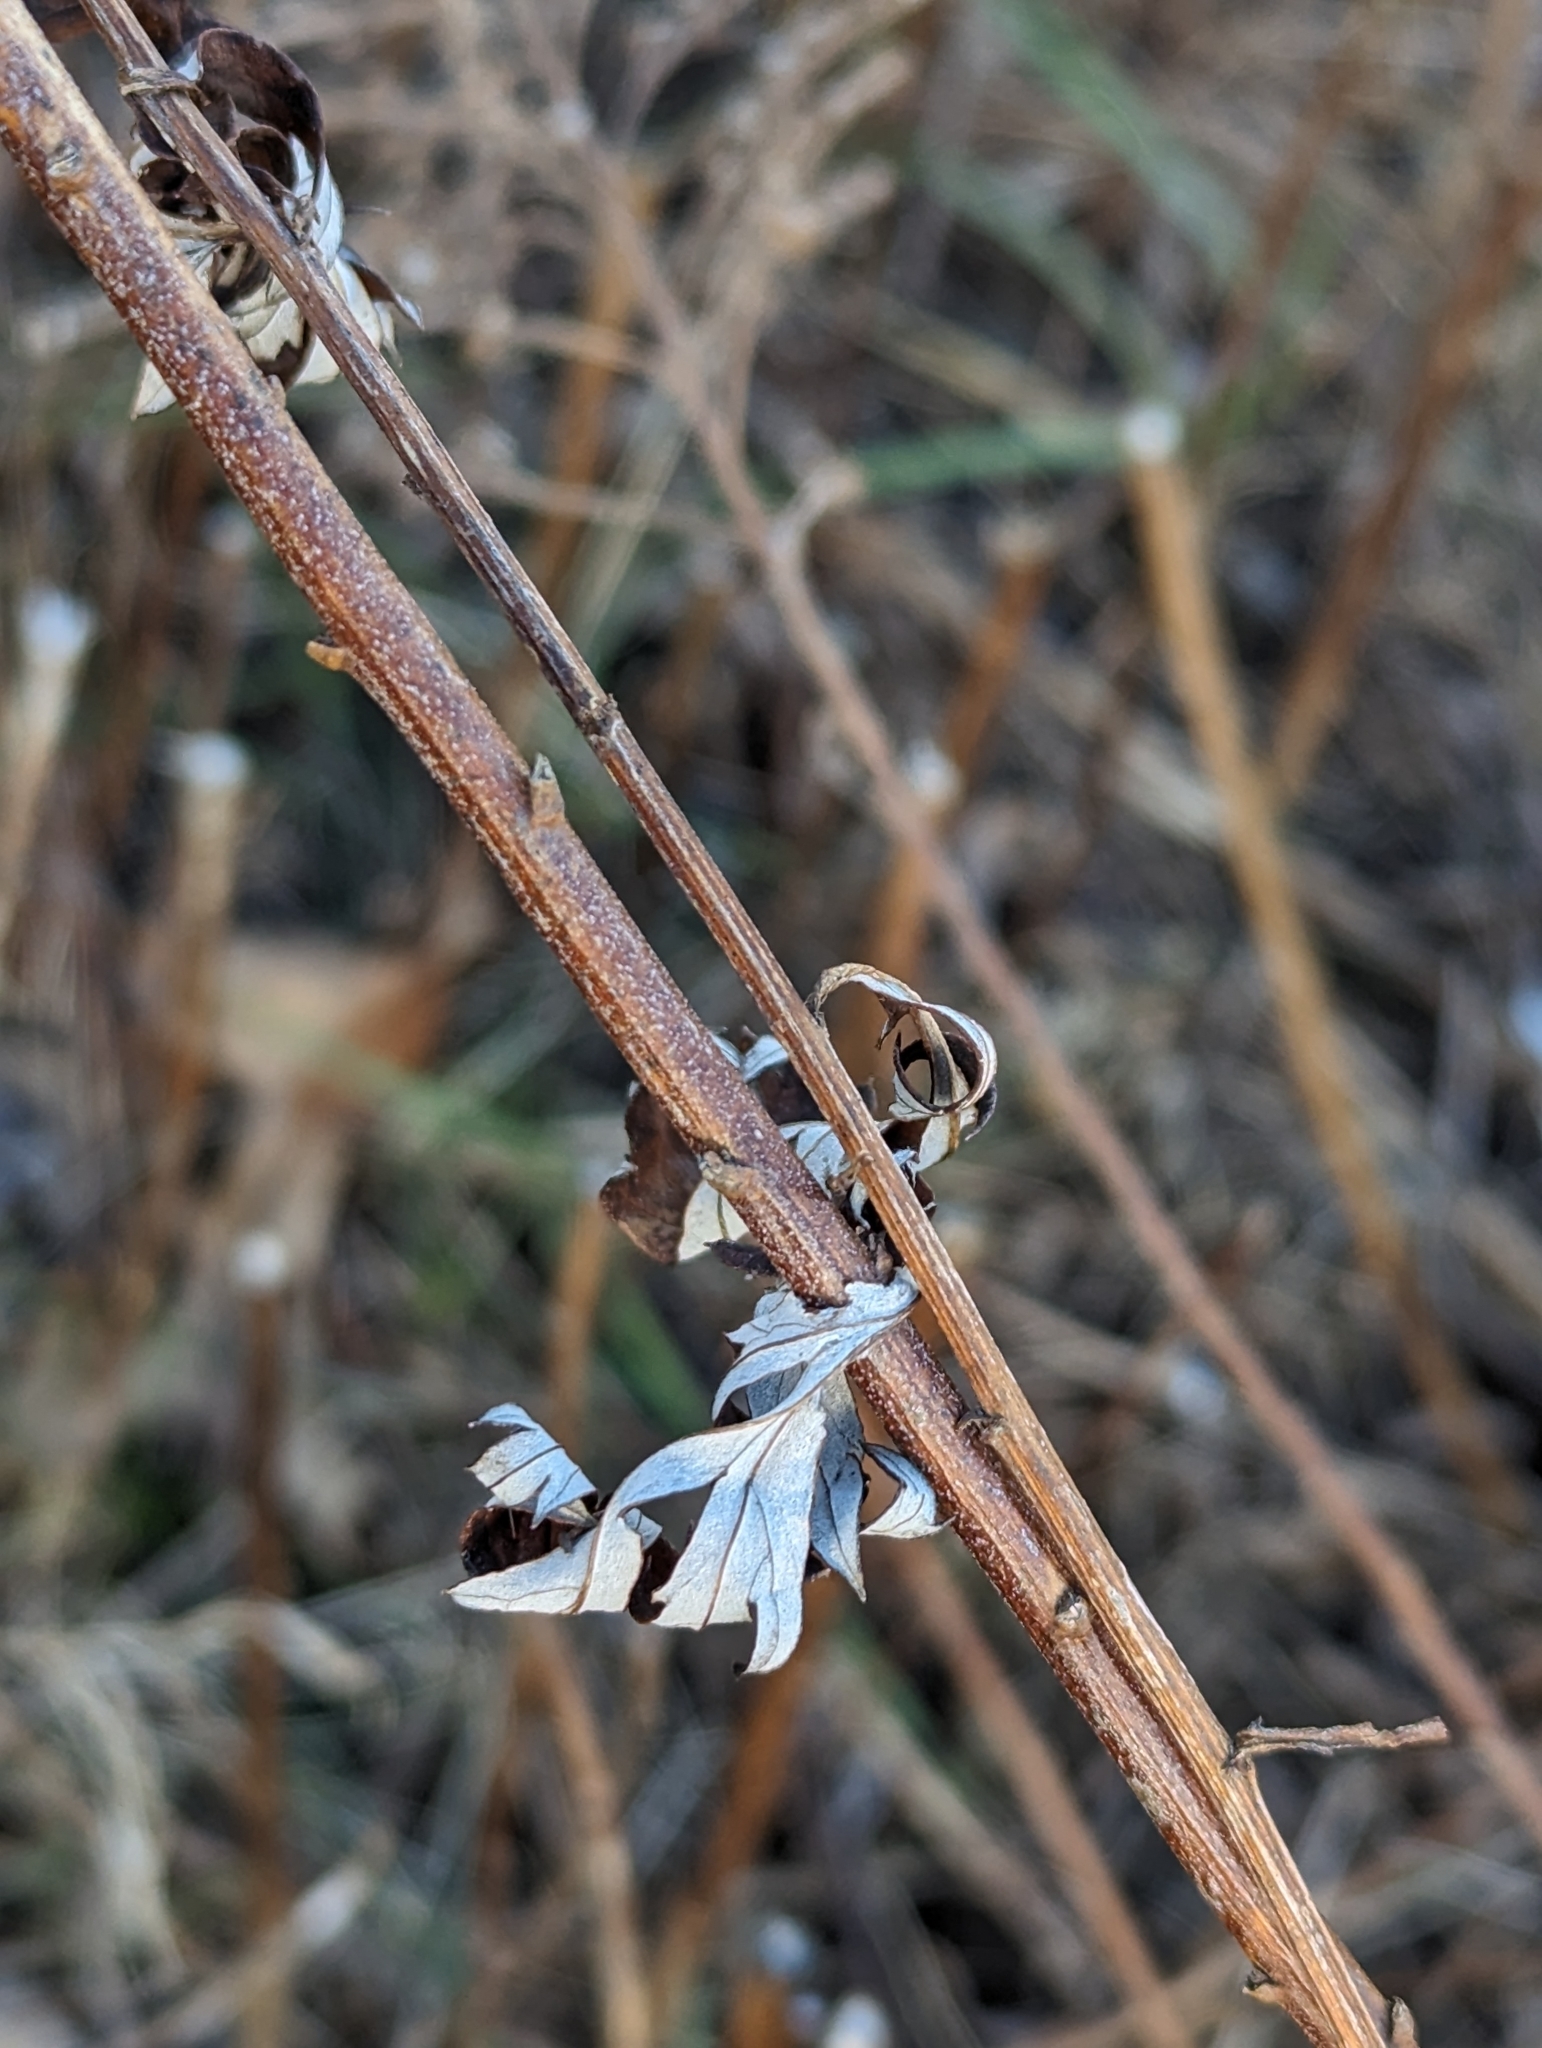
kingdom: Plantae
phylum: Tracheophyta
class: Magnoliopsida
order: Asterales
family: Asteraceae
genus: Artemisia
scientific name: Artemisia vulgaris
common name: Mugwort
